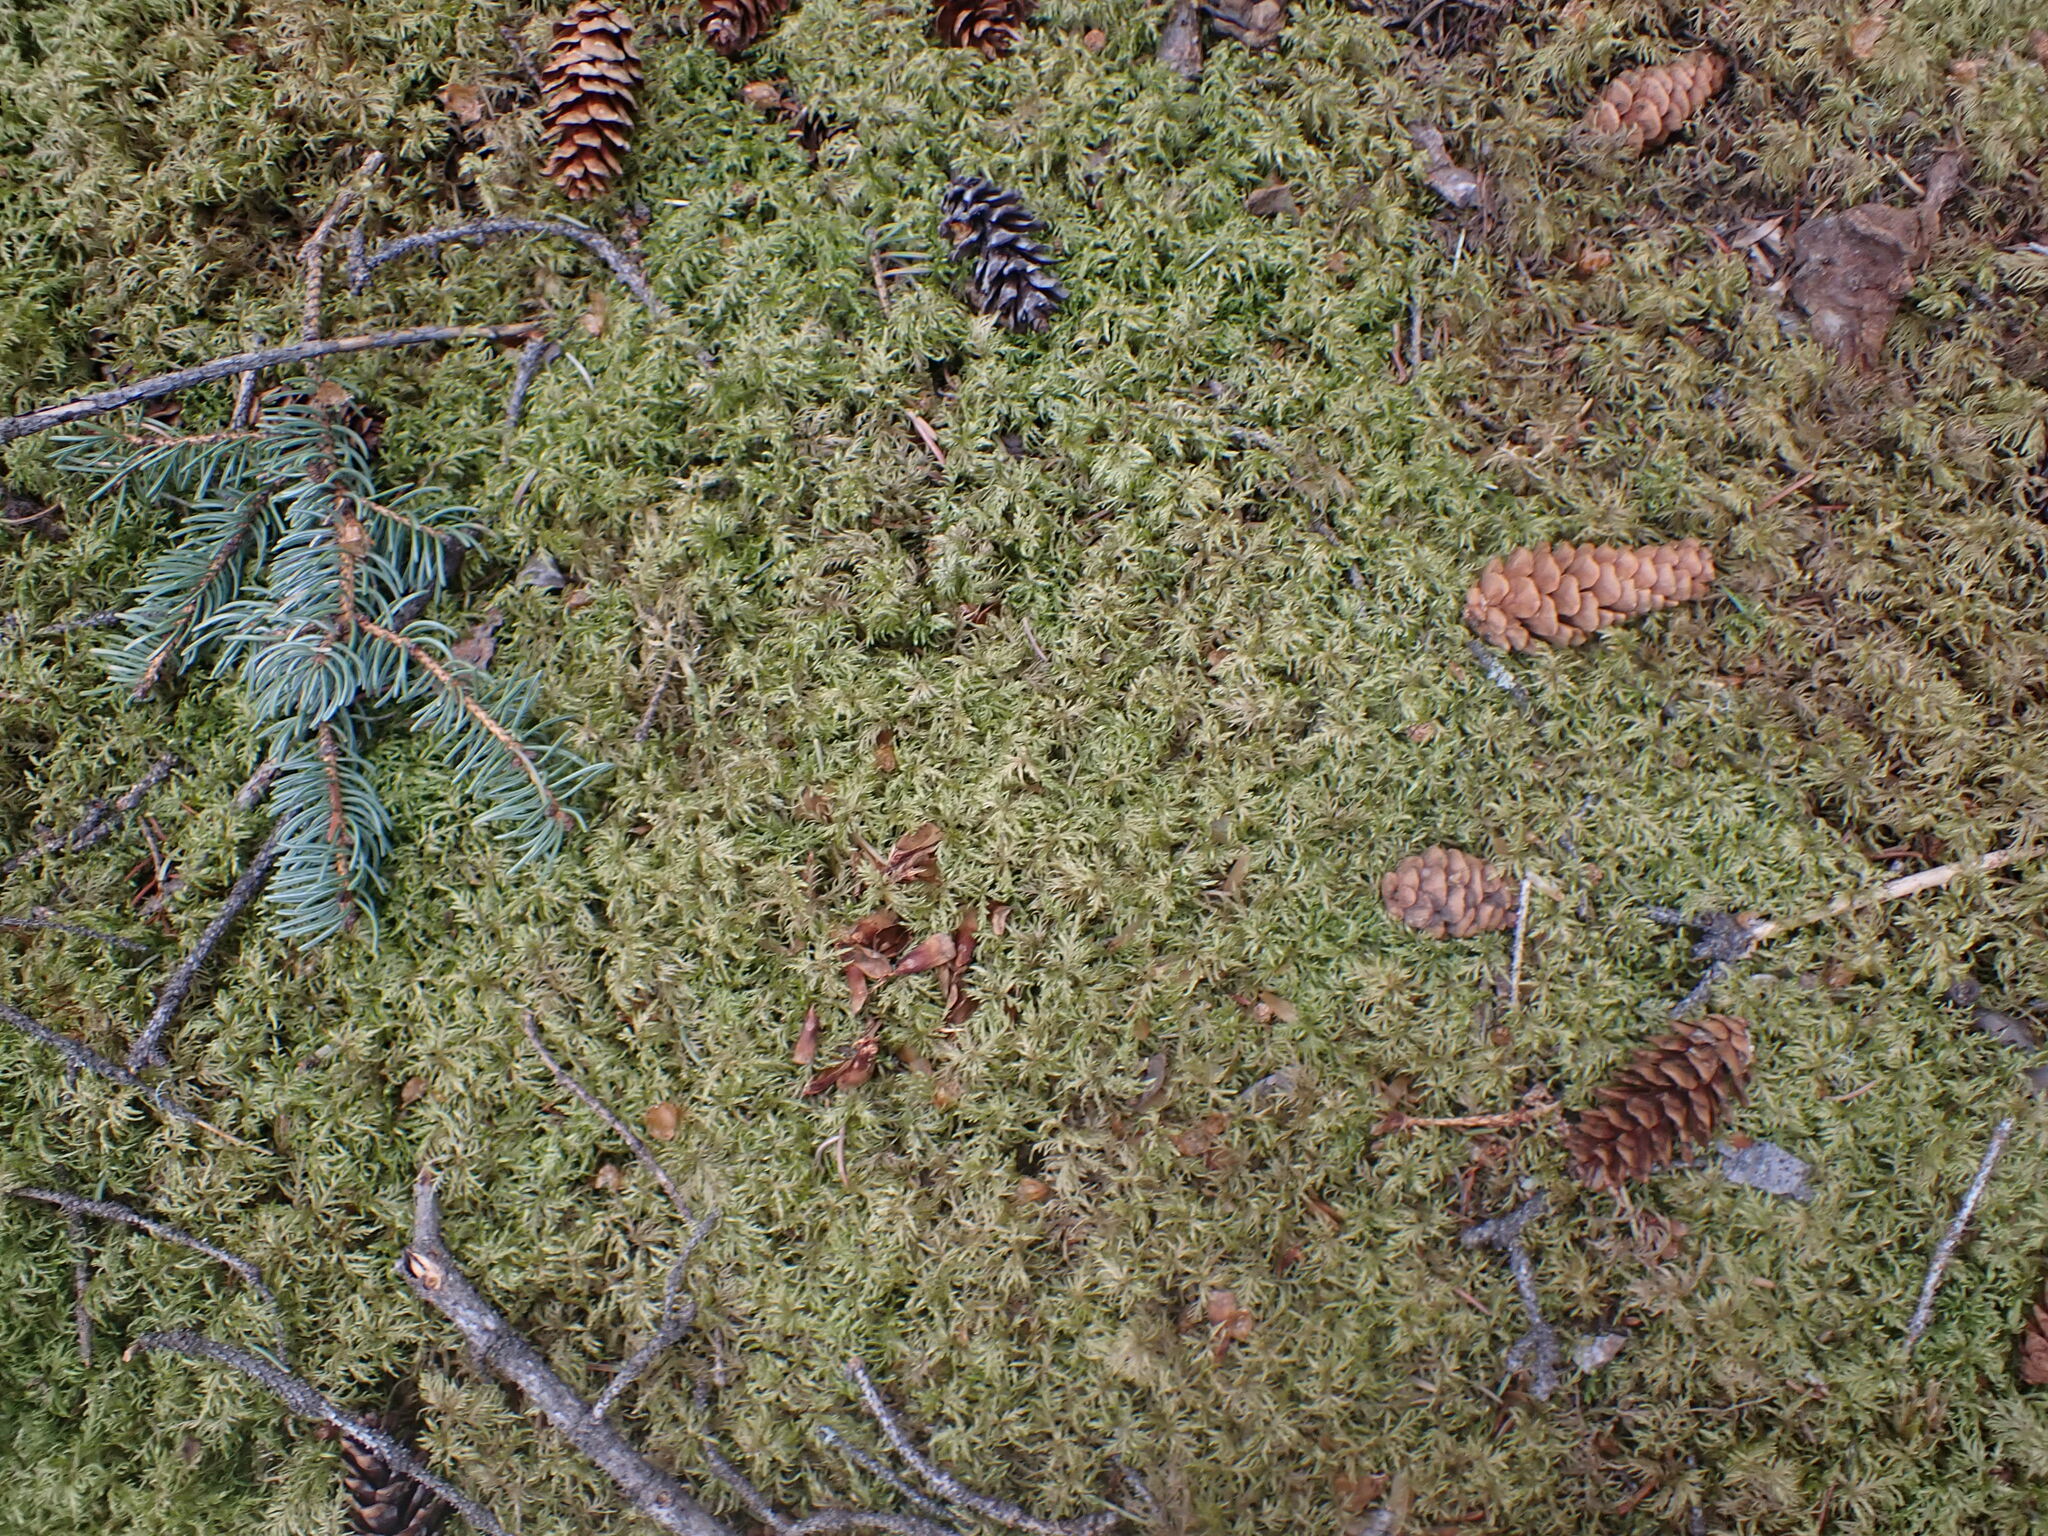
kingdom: Plantae
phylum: Bryophyta
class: Bryopsida
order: Hypnales
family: Hylocomiaceae
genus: Hylocomium
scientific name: Hylocomium splendens
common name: Stairstep moss
